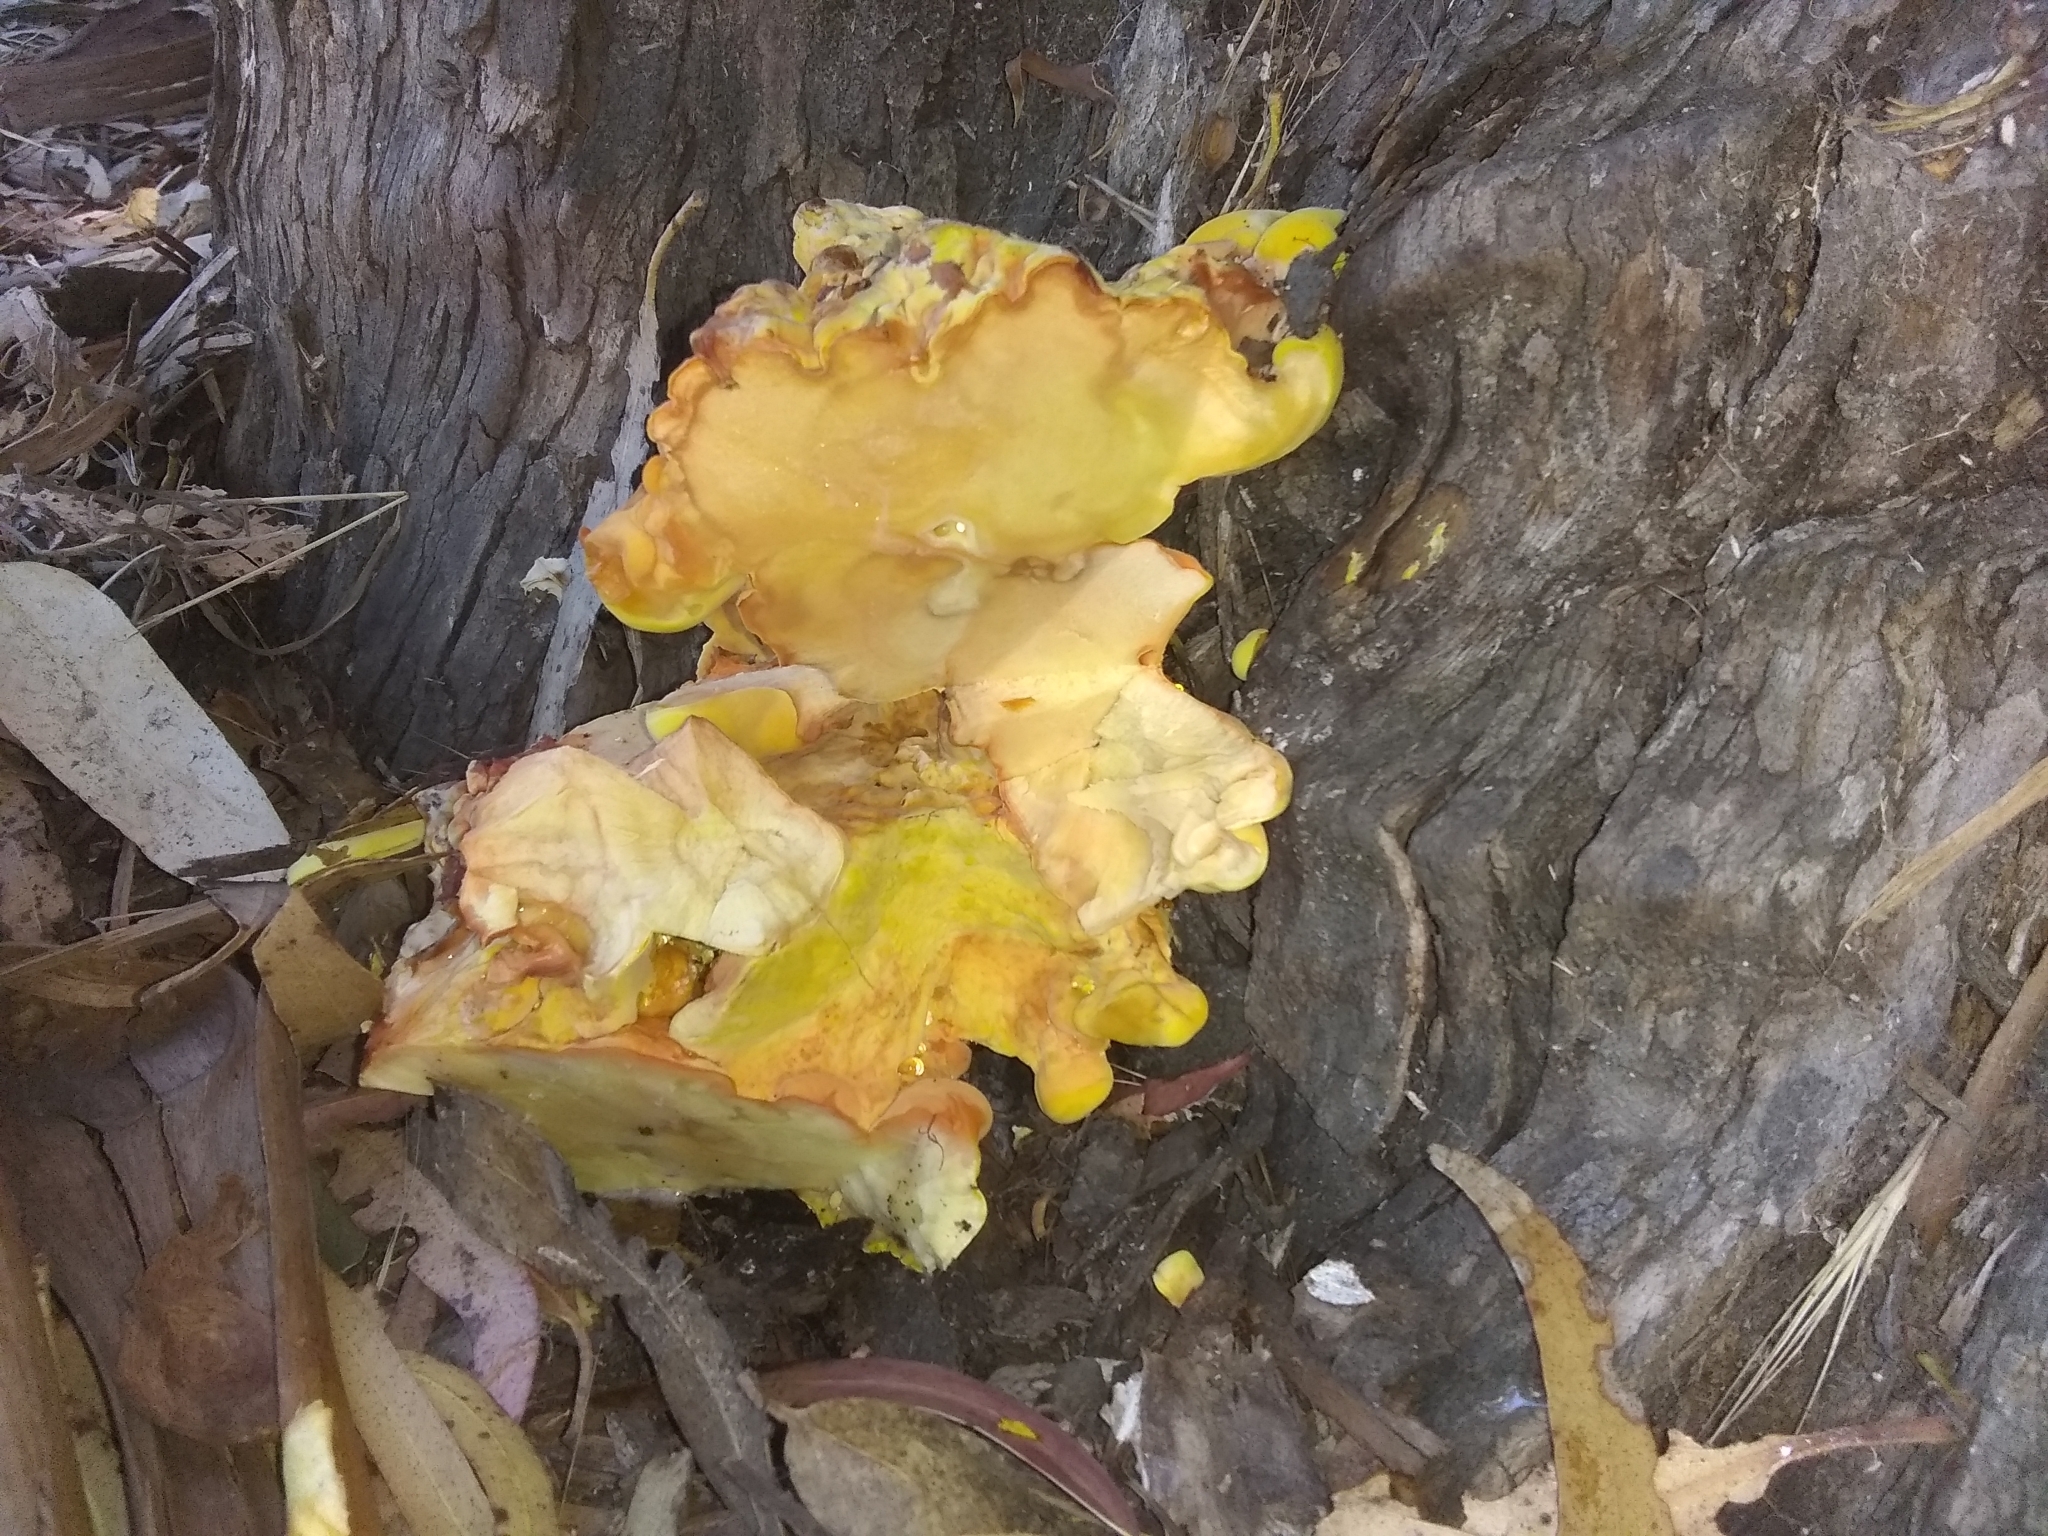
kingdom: Fungi
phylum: Basidiomycota
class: Agaricomycetes
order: Polyporales
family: Laetiporaceae
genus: Laetiporus
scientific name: Laetiporus gilbertsonii
